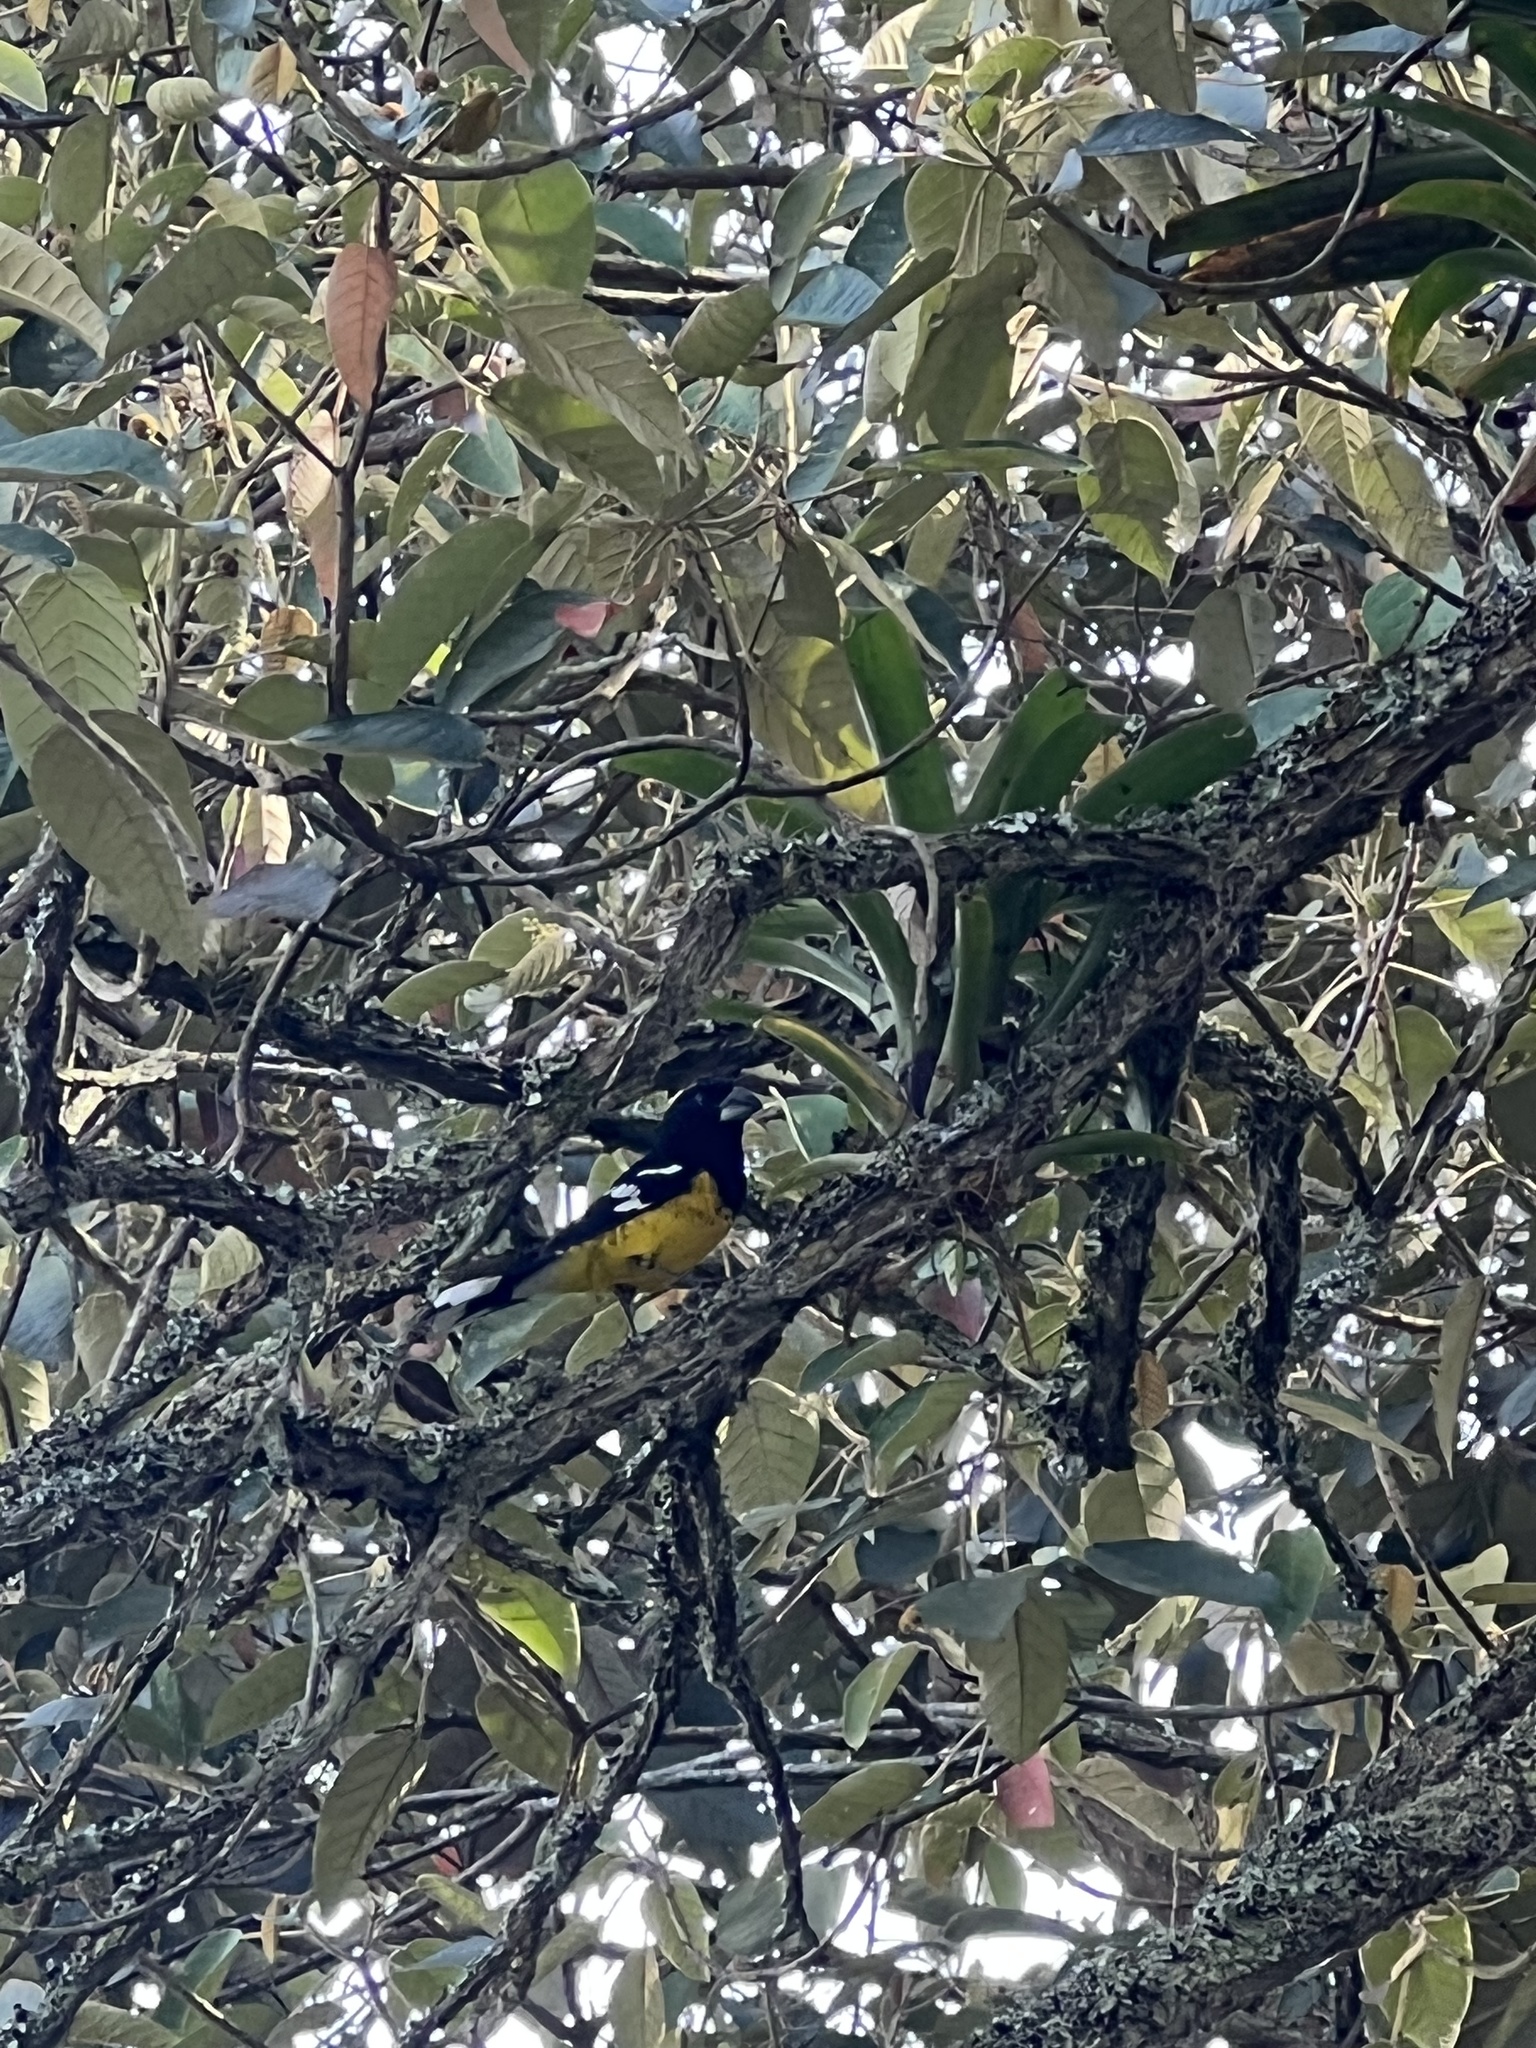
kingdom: Animalia
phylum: Chordata
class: Aves
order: Passeriformes
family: Cardinalidae
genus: Pheucticus
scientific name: Pheucticus aureoventris
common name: Black-backed grosbeak
